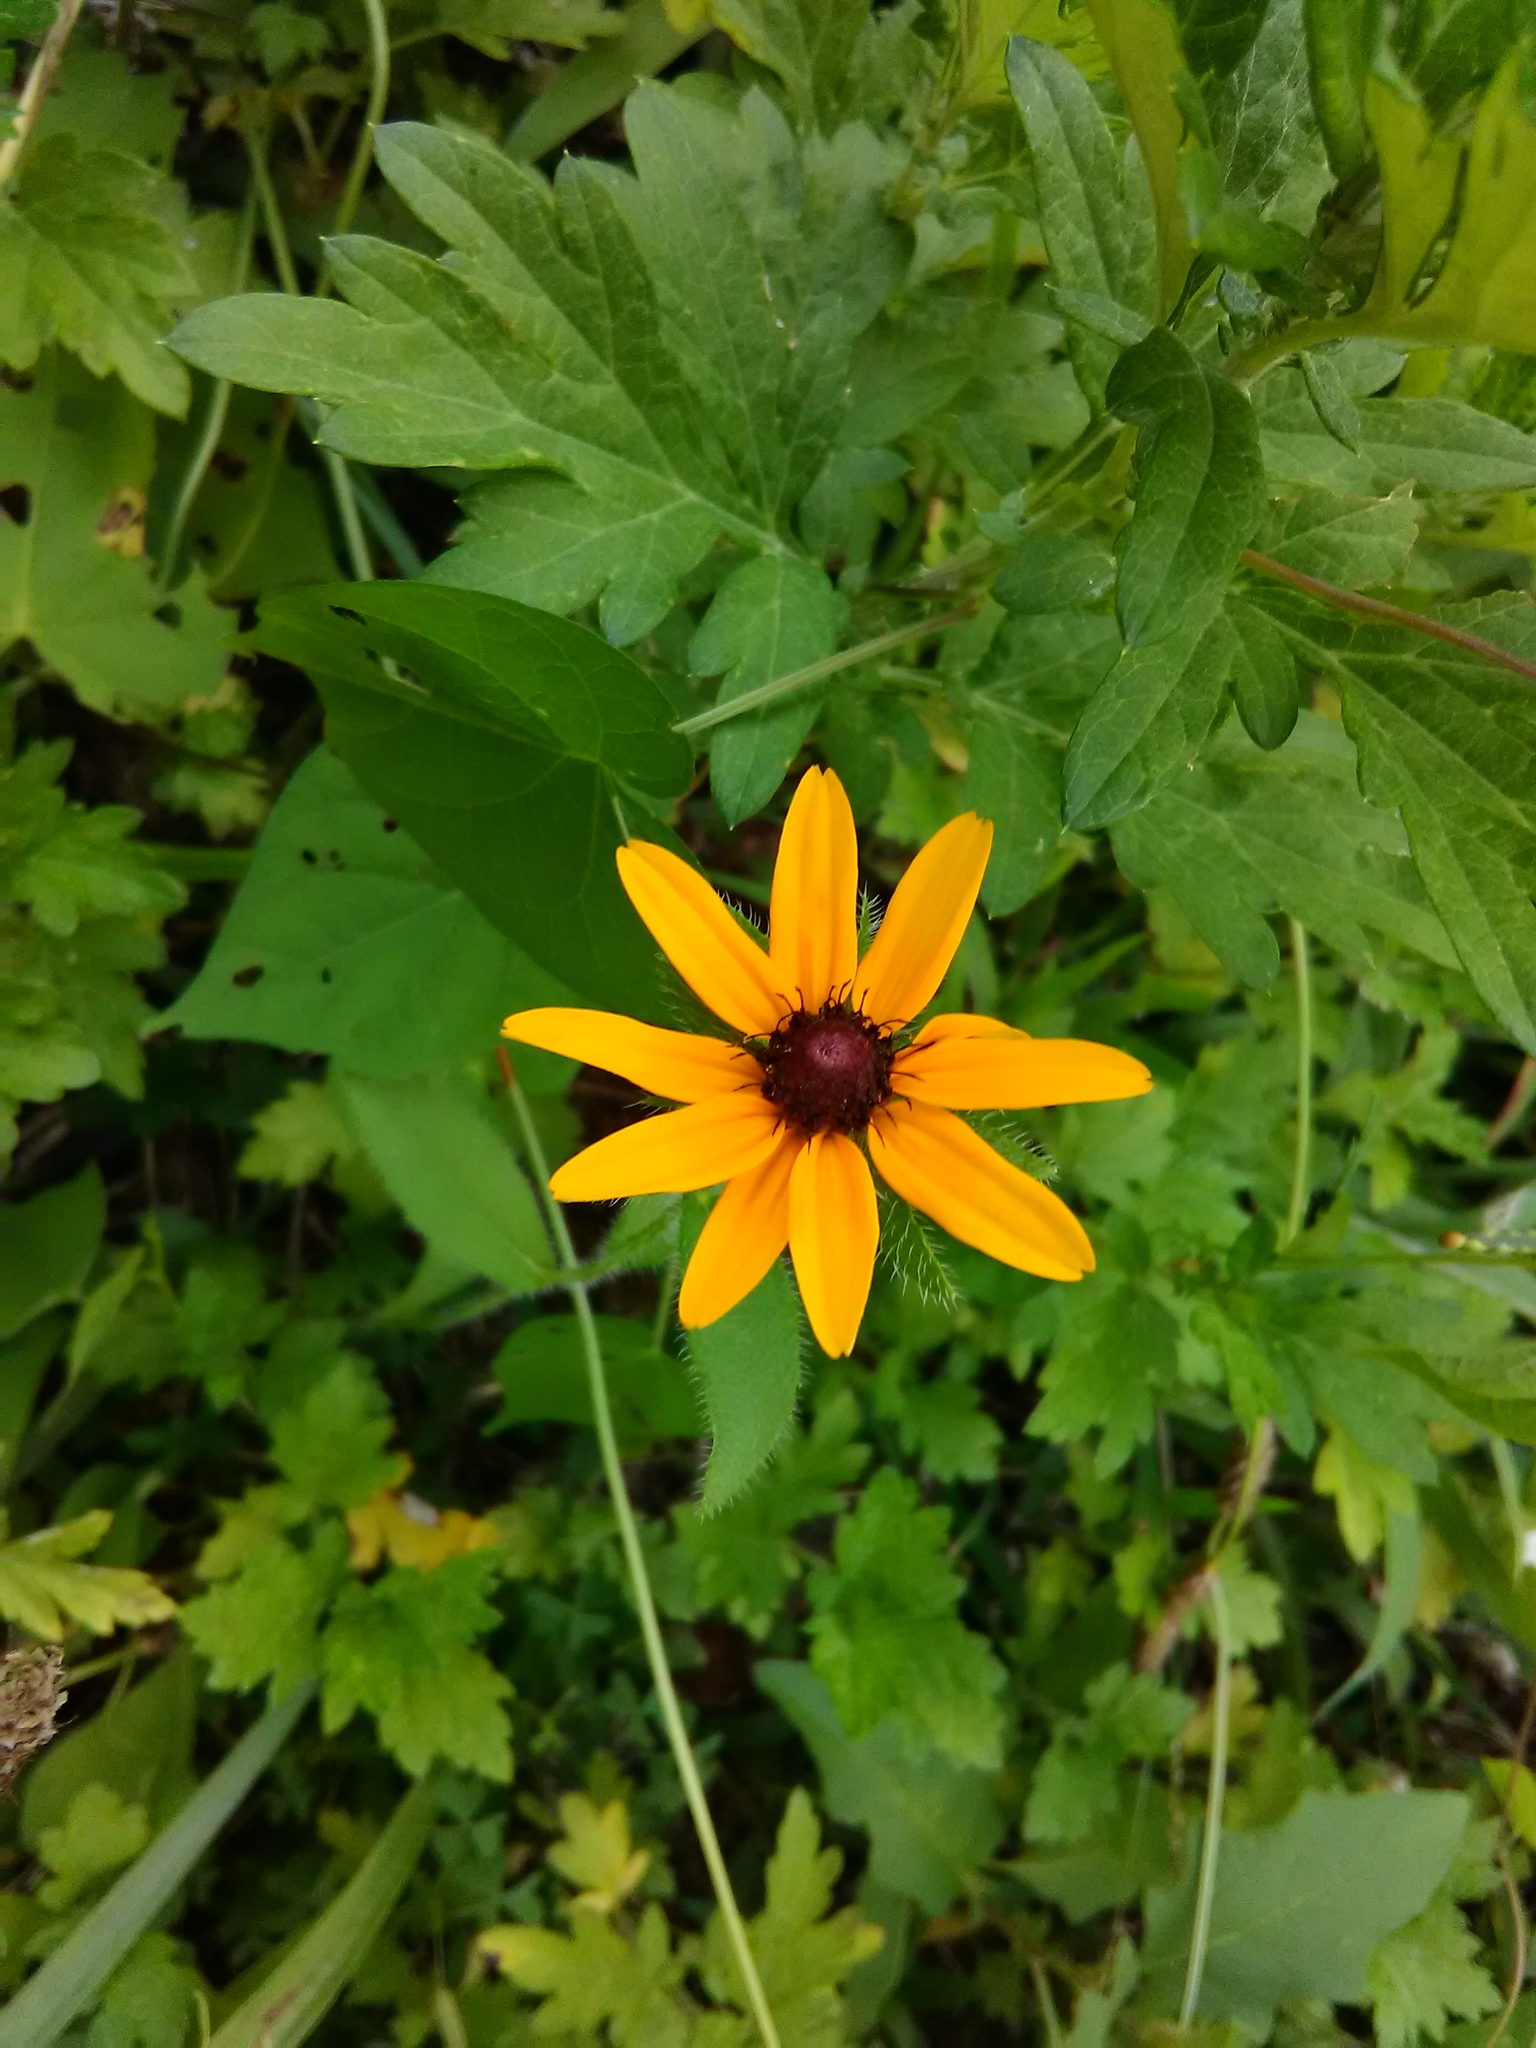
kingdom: Plantae
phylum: Tracheophyta
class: Magnoliopsida
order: Asterales
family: Asteraceae
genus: Rudbeckia
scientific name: Rudbeckia hirta
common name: Black-eyed-susan
